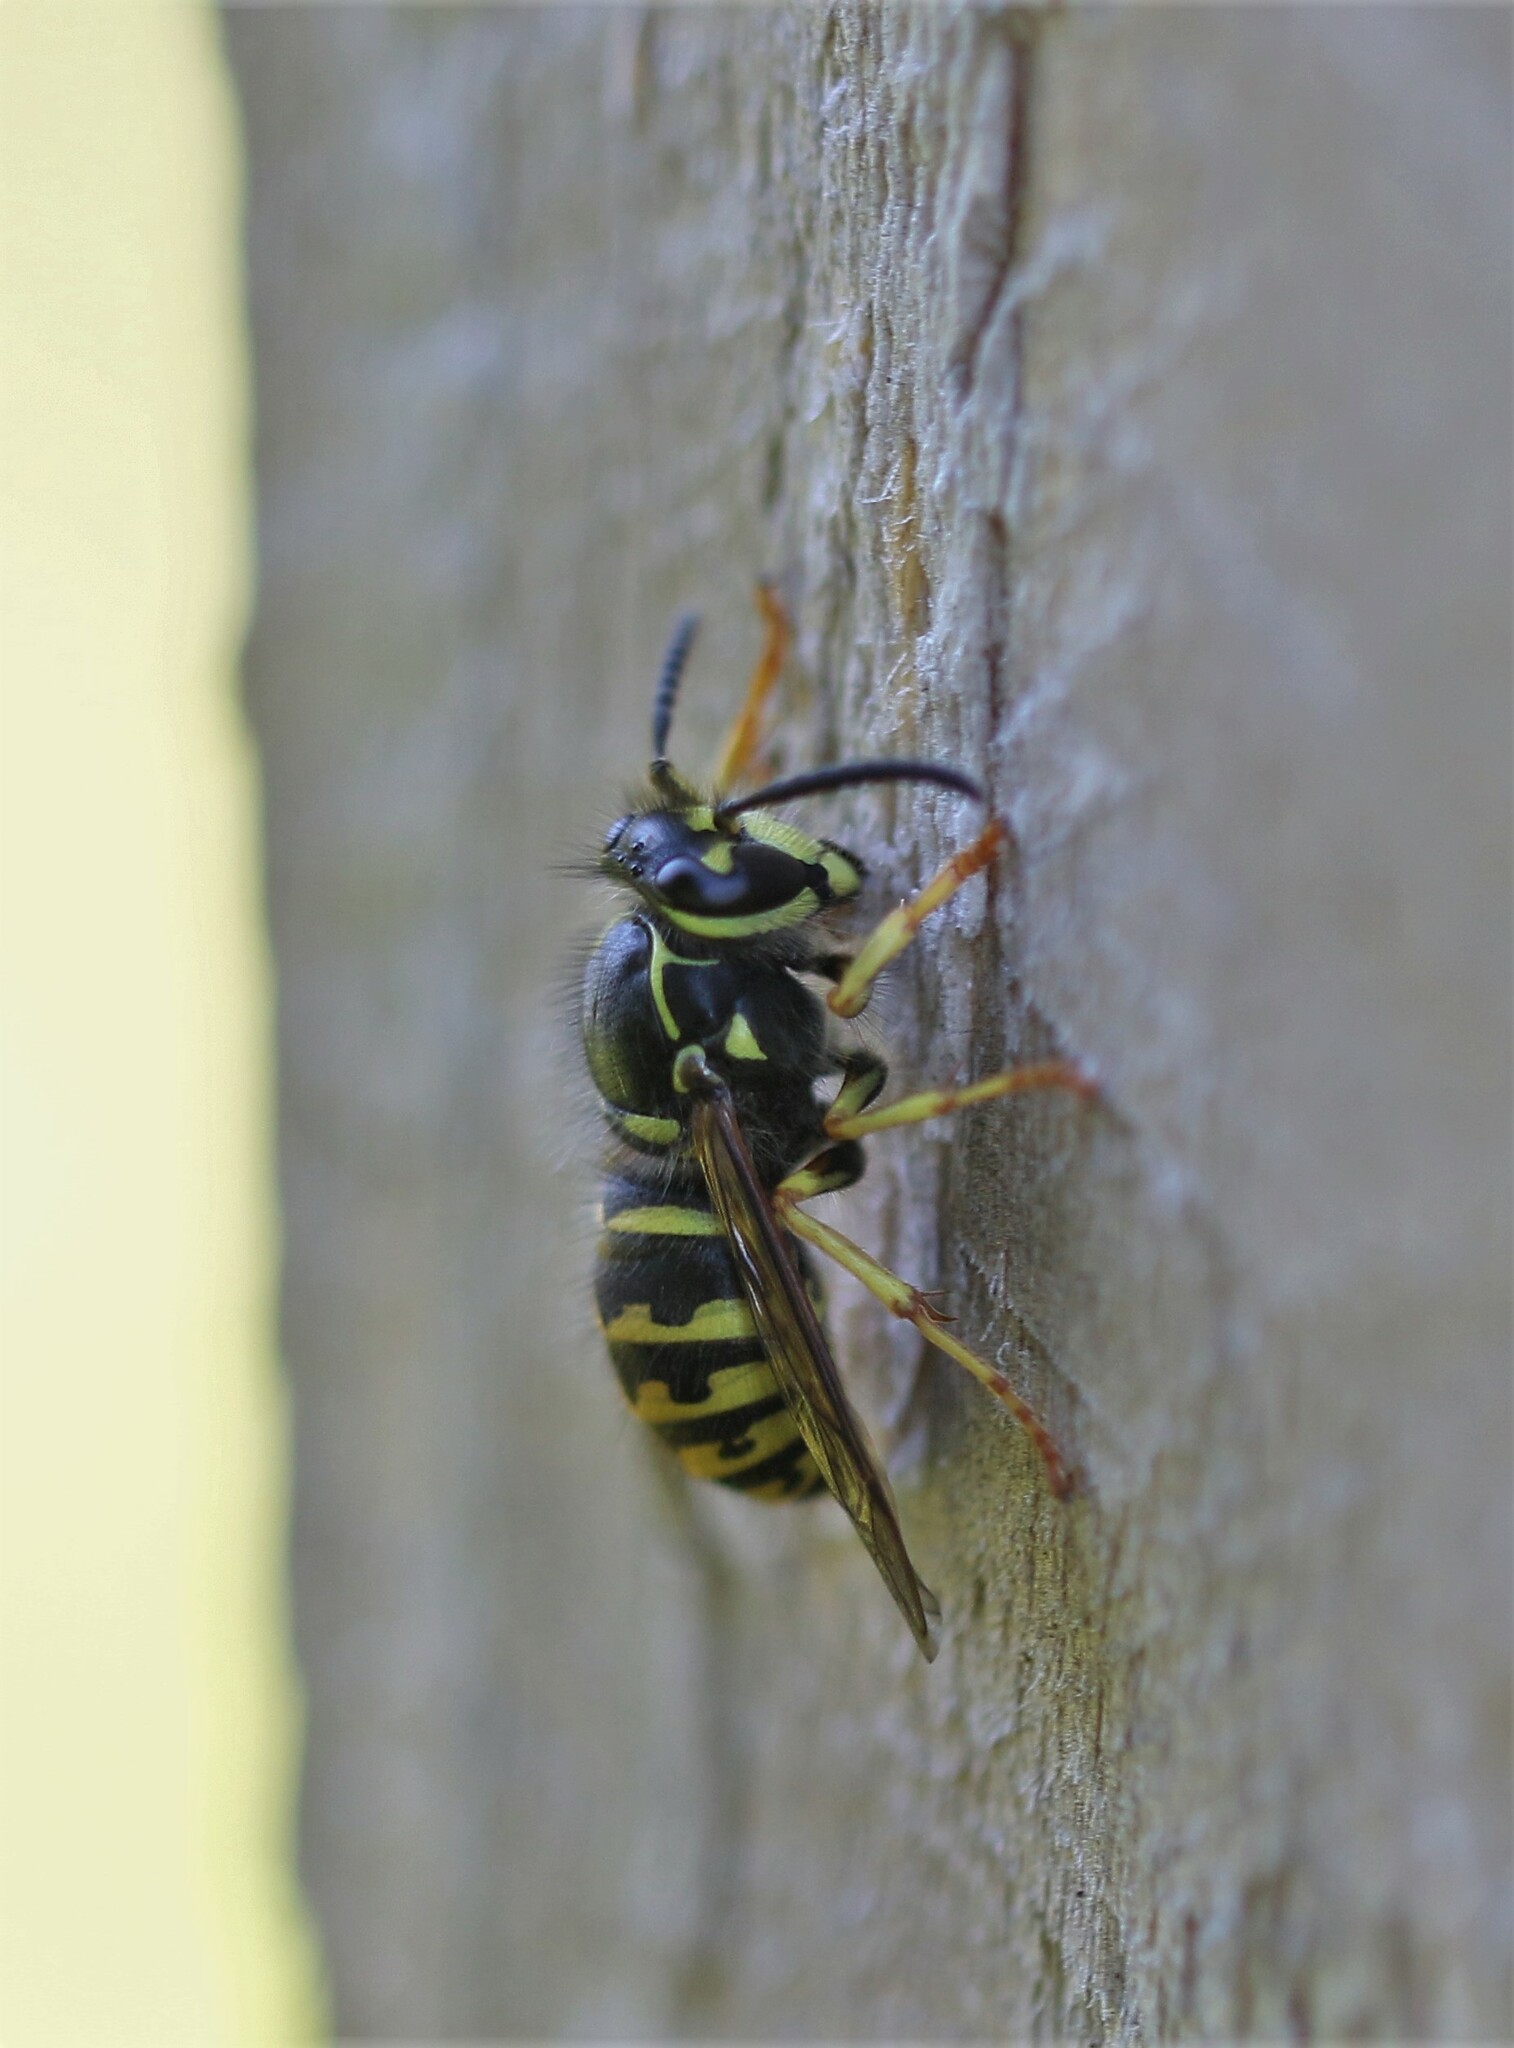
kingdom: Animalia
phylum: Arthropoda
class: Insecta
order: Hymenoptera
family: Vespidae
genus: Dolichovespula
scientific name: Dolichovespula arenaria
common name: Aerial yellowjacket
